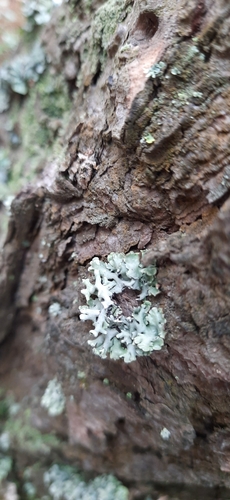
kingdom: Fungi
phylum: Ascomycota
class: Lecanoromycetes
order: Lecanorales
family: Parmeliaceae
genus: Hypogymnia
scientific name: Hypogymnia physodes
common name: Dark crottle
